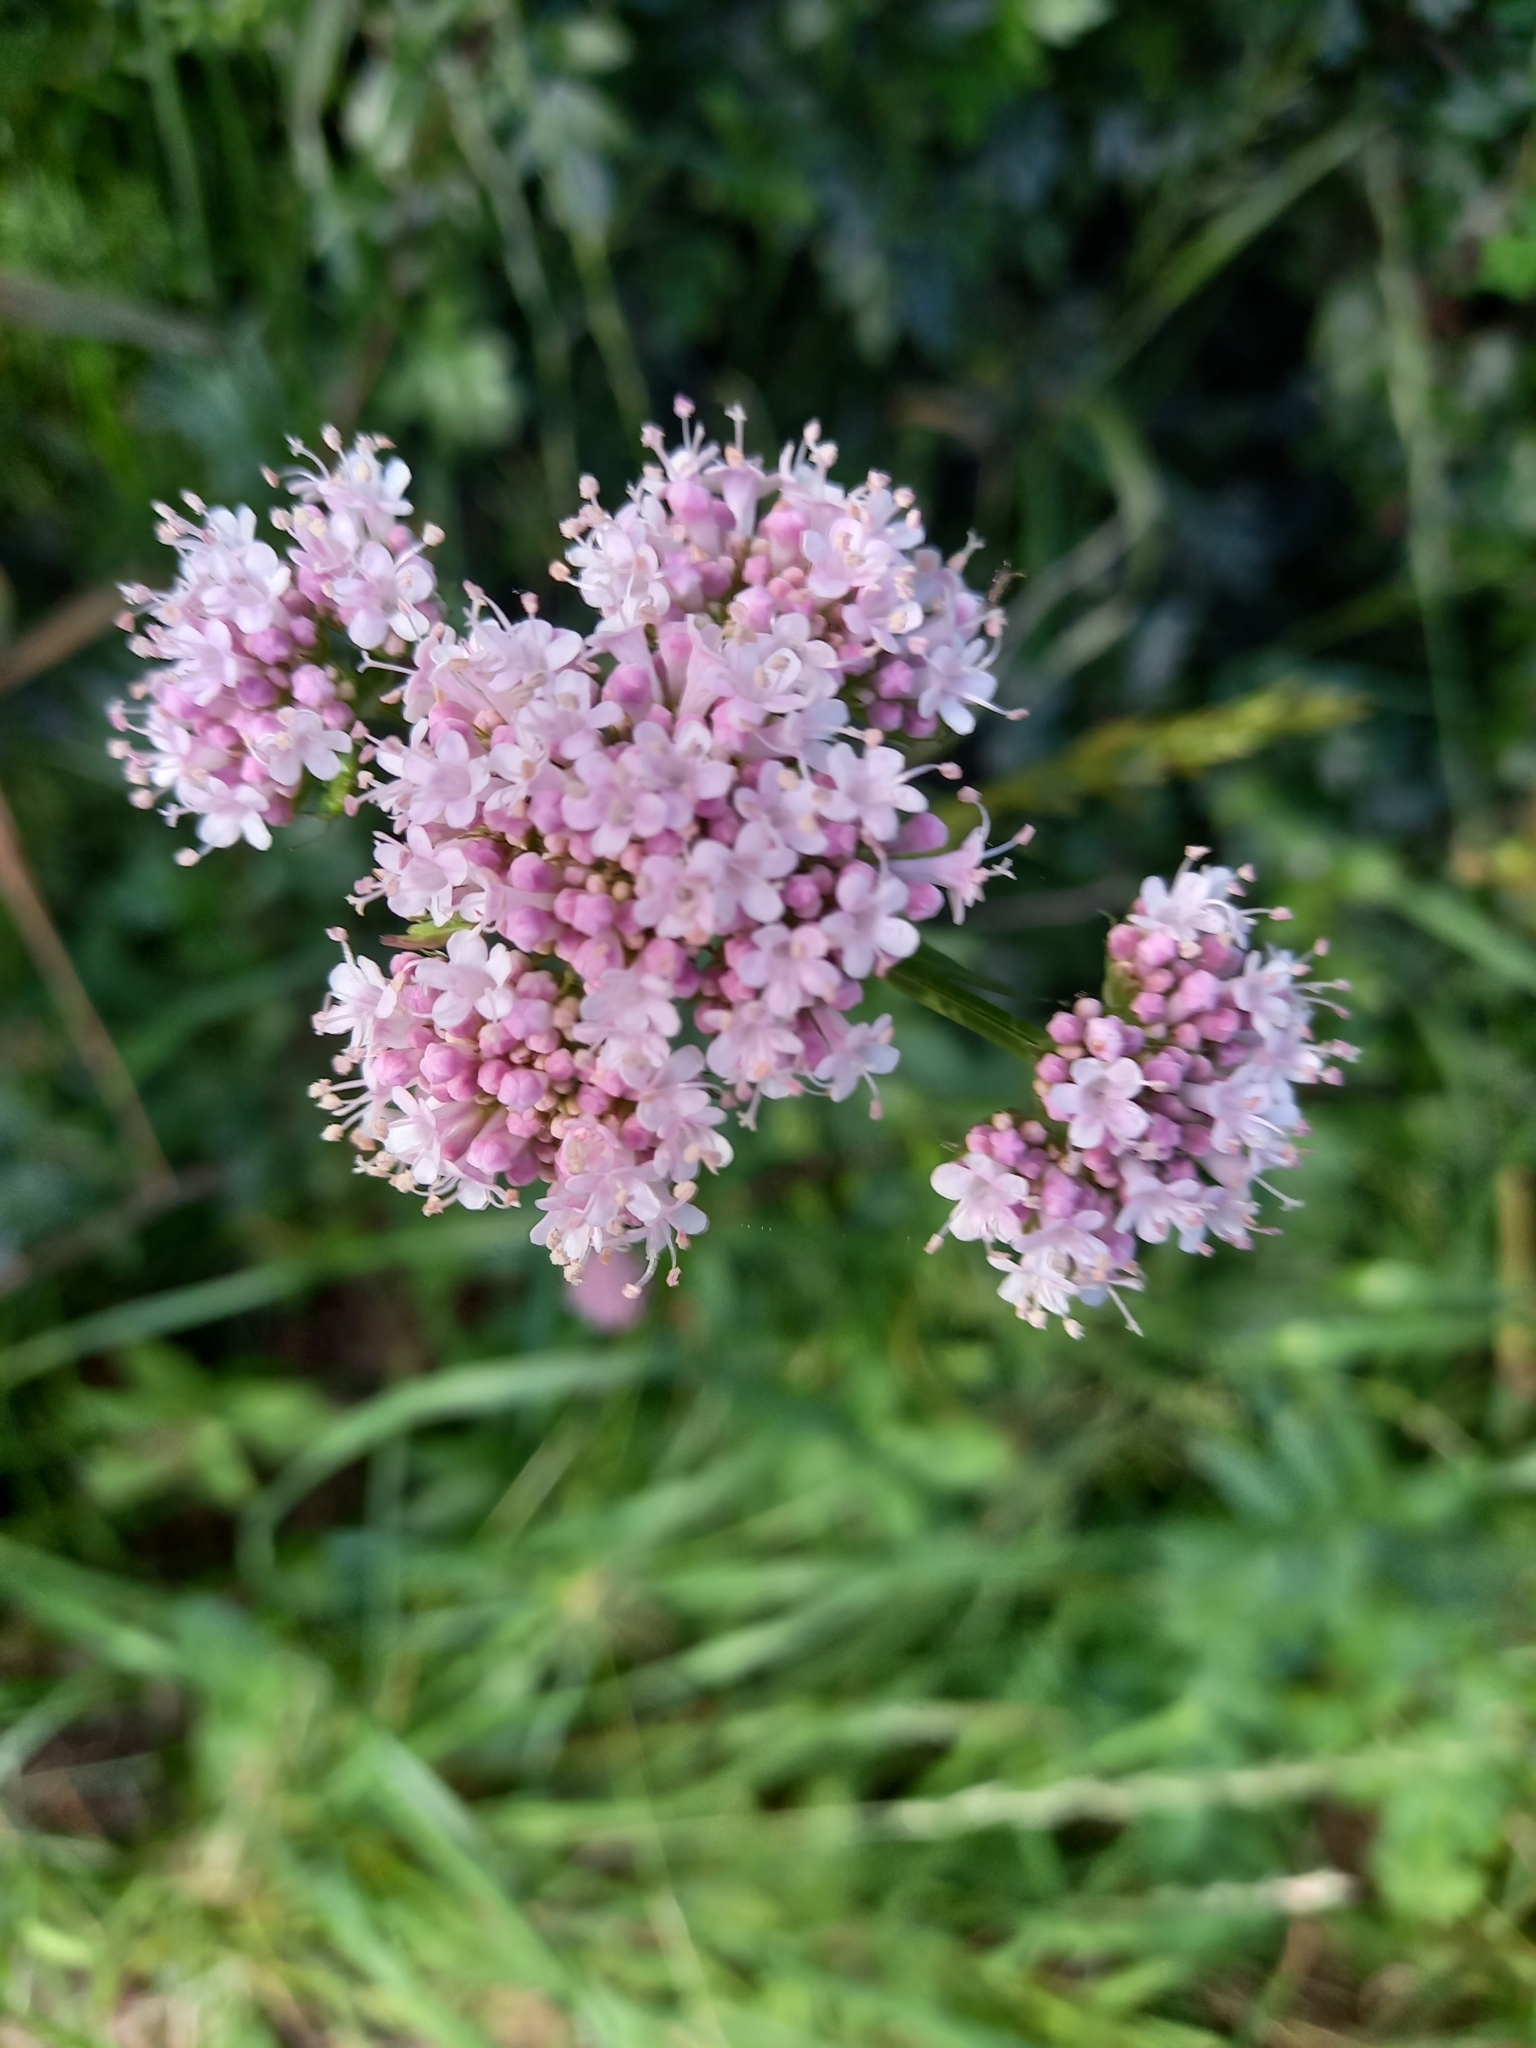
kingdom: Plantae
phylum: Tracheophyta
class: Magnoliopsida
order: Dipsacales
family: Caprifoliaceae
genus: Valeriana
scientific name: Valeriana officinalis
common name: Common valerian
